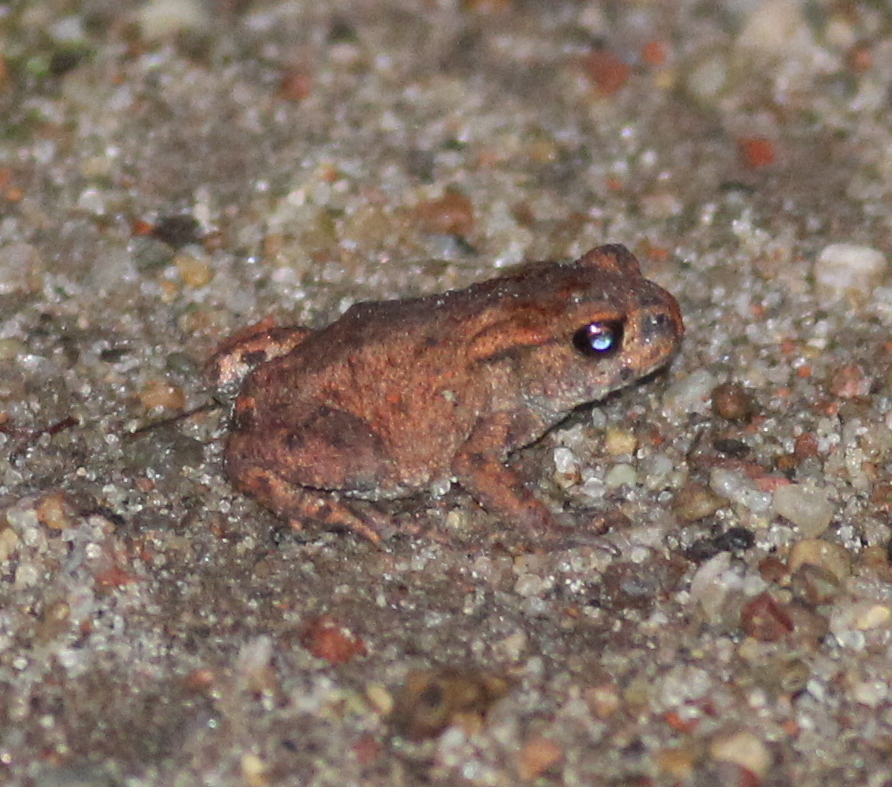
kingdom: Animalia
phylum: Chordata
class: Amphibia
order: Anura
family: Bufonidae
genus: Bufo
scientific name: Bufo bufo
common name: Common toad
